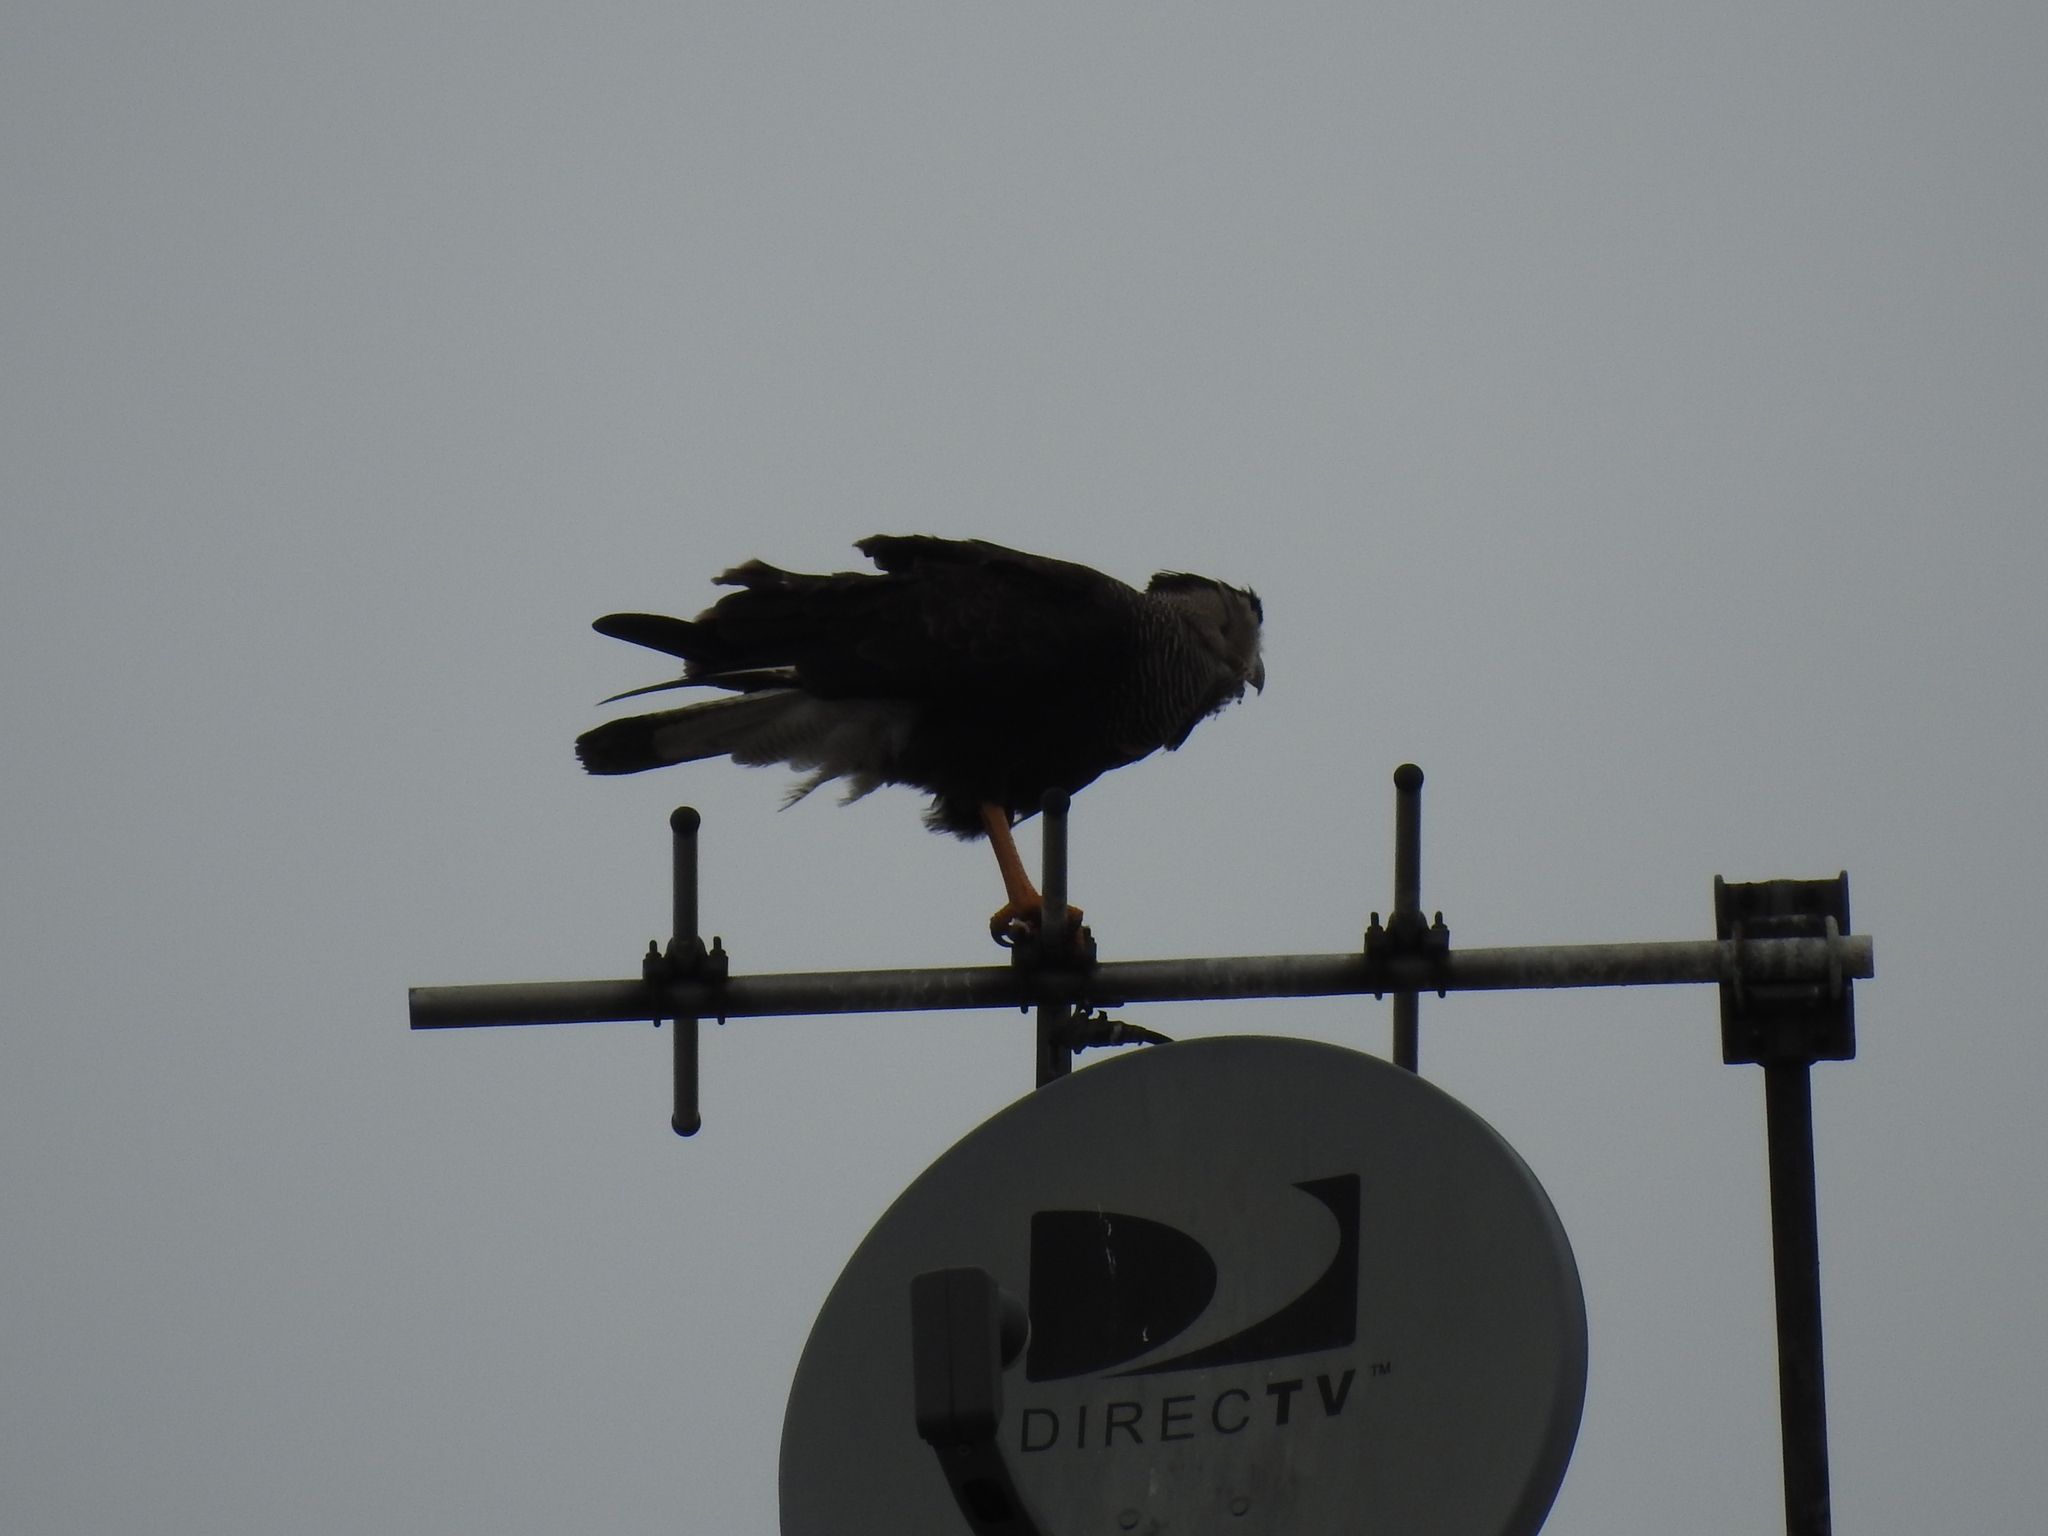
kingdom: Animalia
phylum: Chordata
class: Aves
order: Falconiformes
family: Falconidae
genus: Caracara
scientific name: Caracara plancus
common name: Southern caracara
